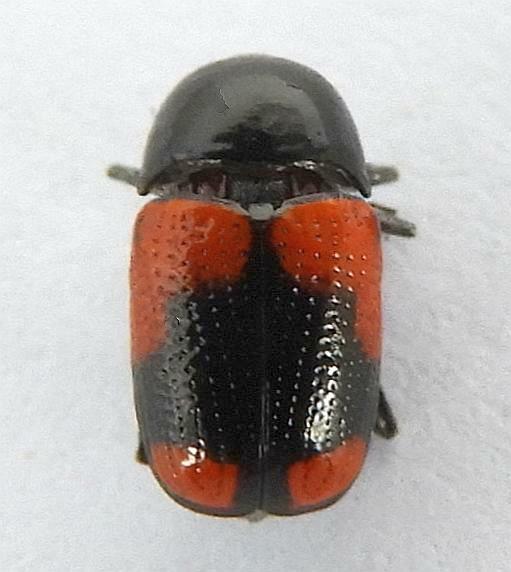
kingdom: Animalia
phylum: Arthropoda
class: Insecta
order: Coleoptera
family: Chrysomelidae
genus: Cryptocephalus
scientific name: Cryptocephalus pubiventris
